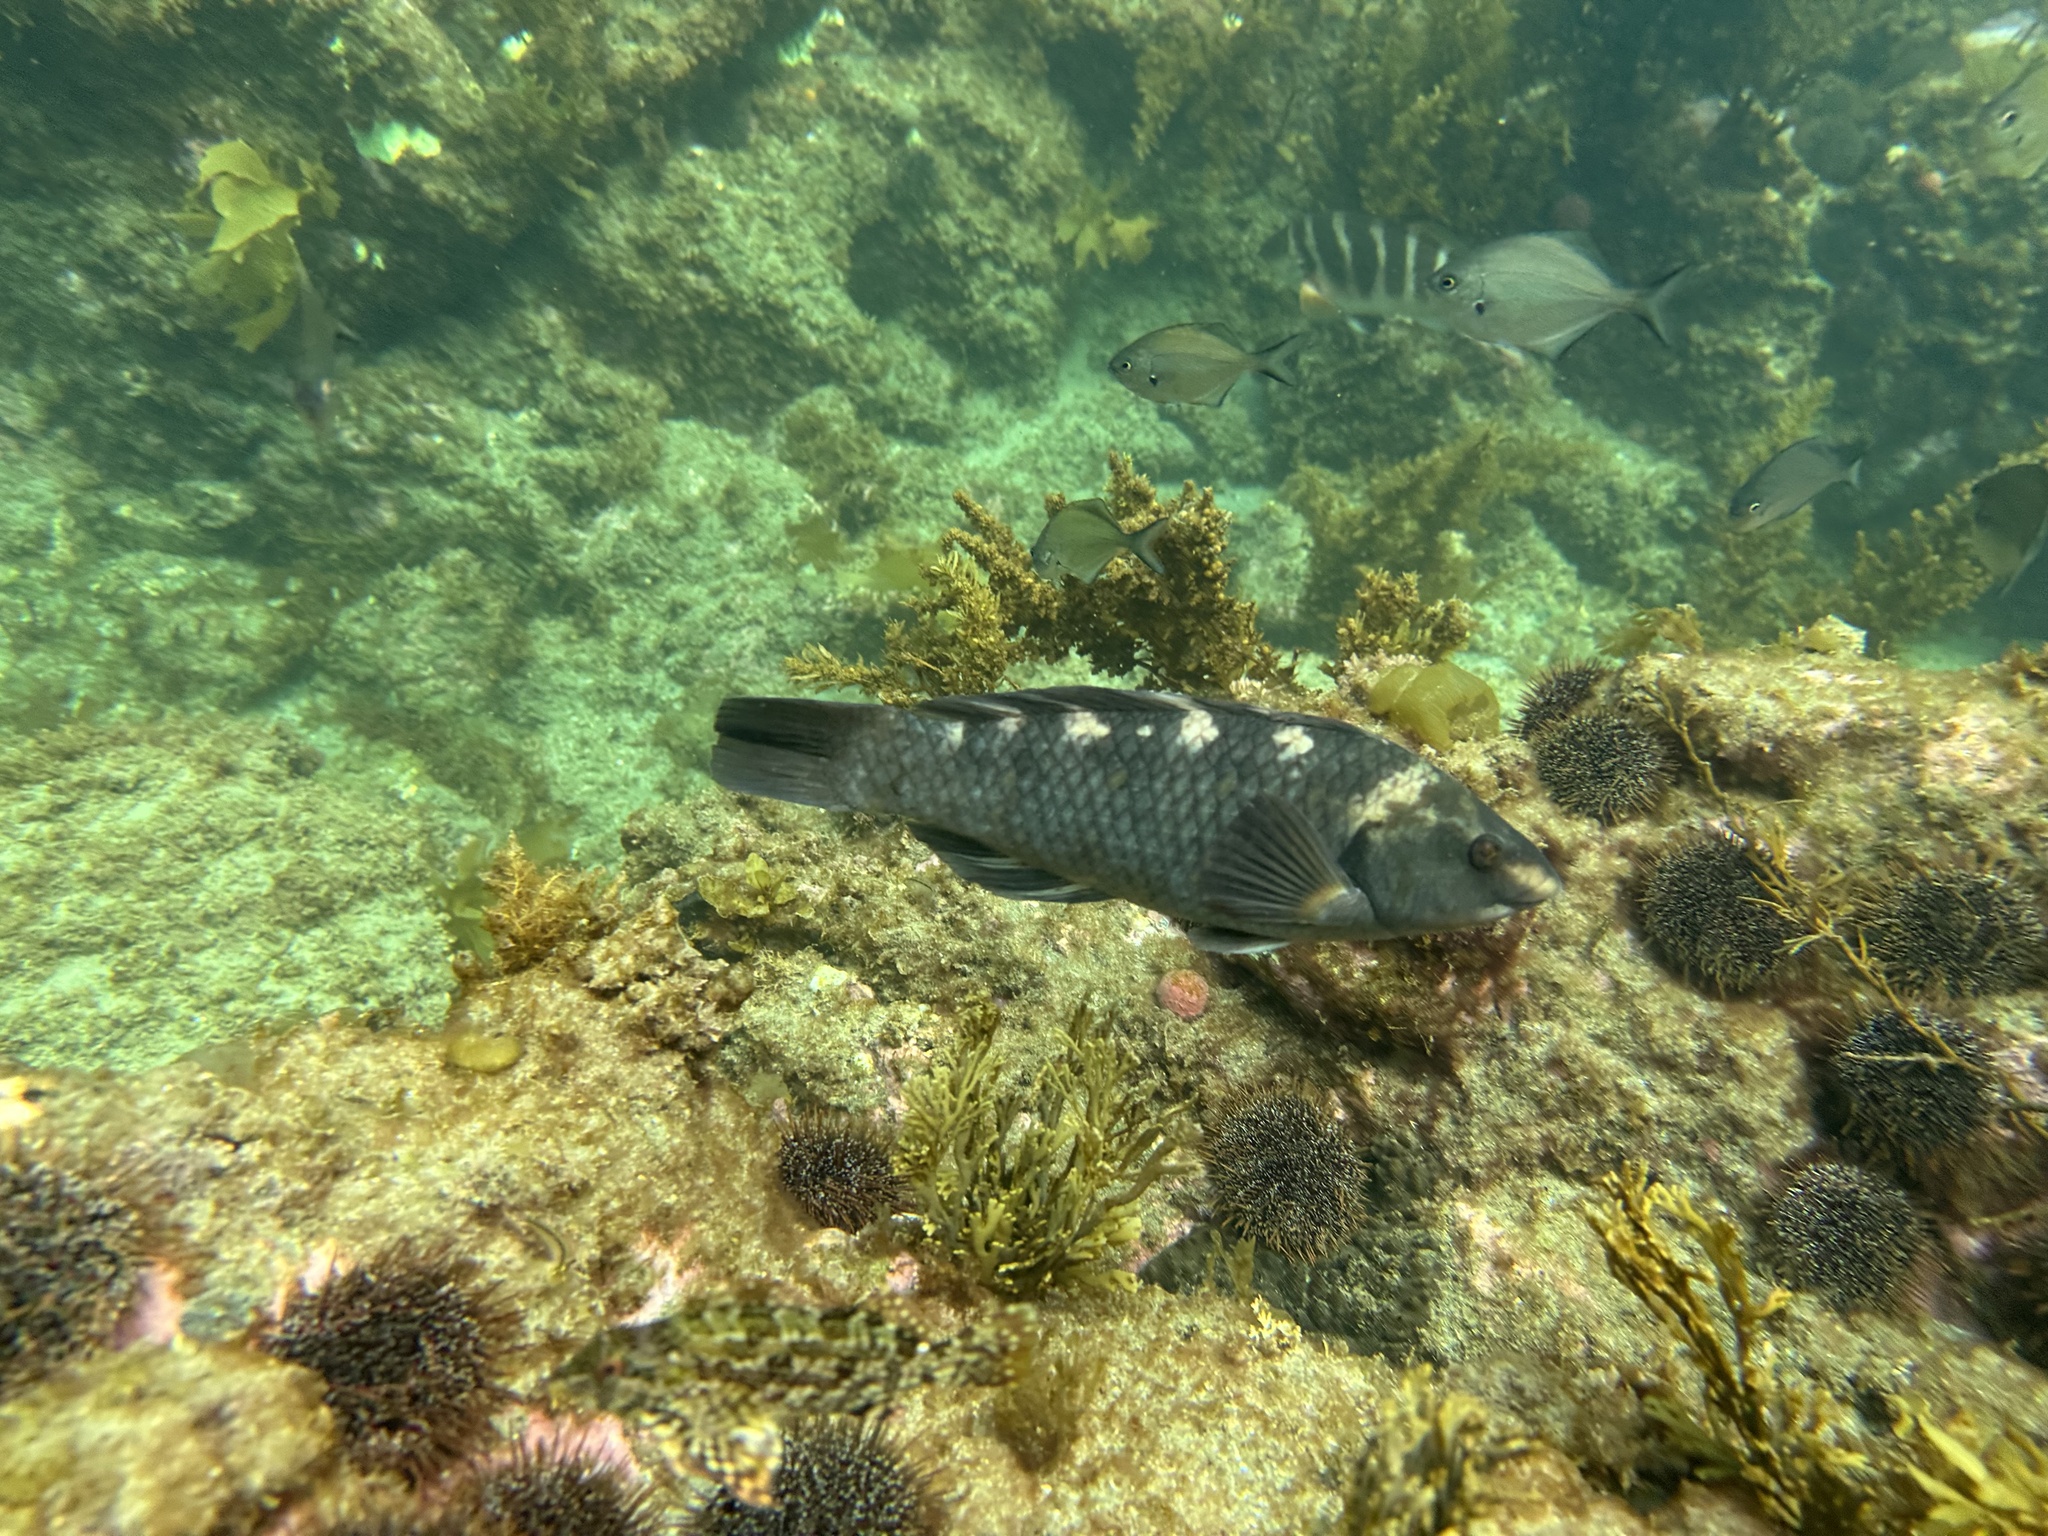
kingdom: Animalia
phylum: Chordata
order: Perciformes
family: Labridae
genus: Notolabrus
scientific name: Notolabrus fucicola
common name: Banded parrotfish
